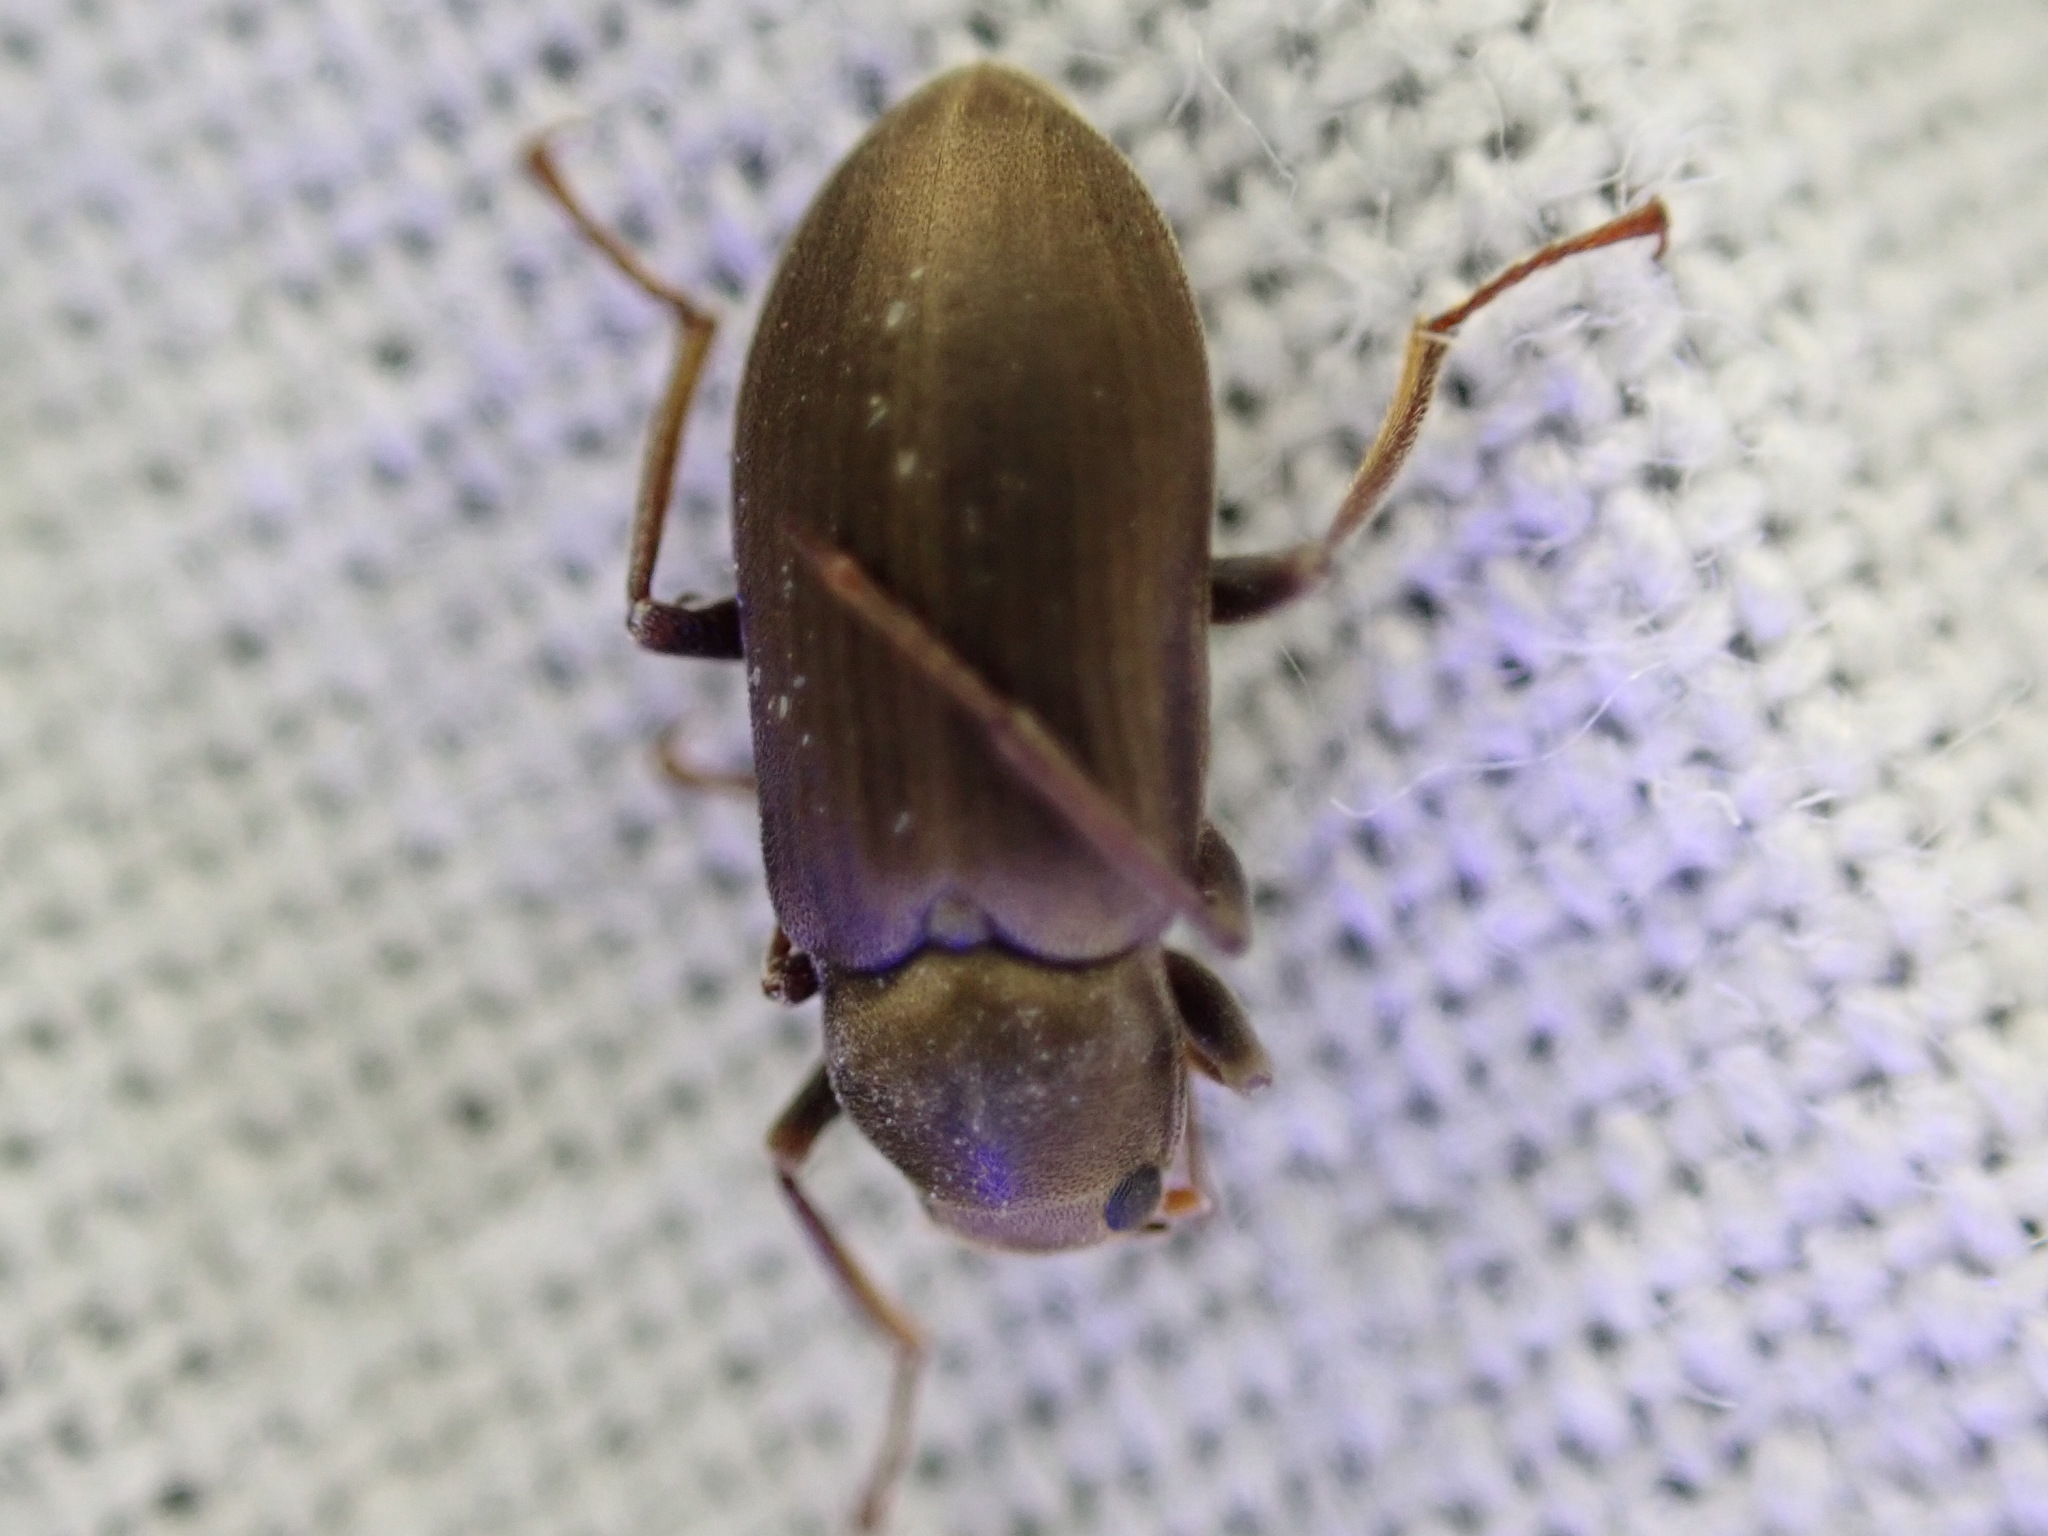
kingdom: Animalia
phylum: Arthropoda
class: Insecta
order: Coleoptera
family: Dryopidae
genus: Pomatinus
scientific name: Pomatinus substriatus
